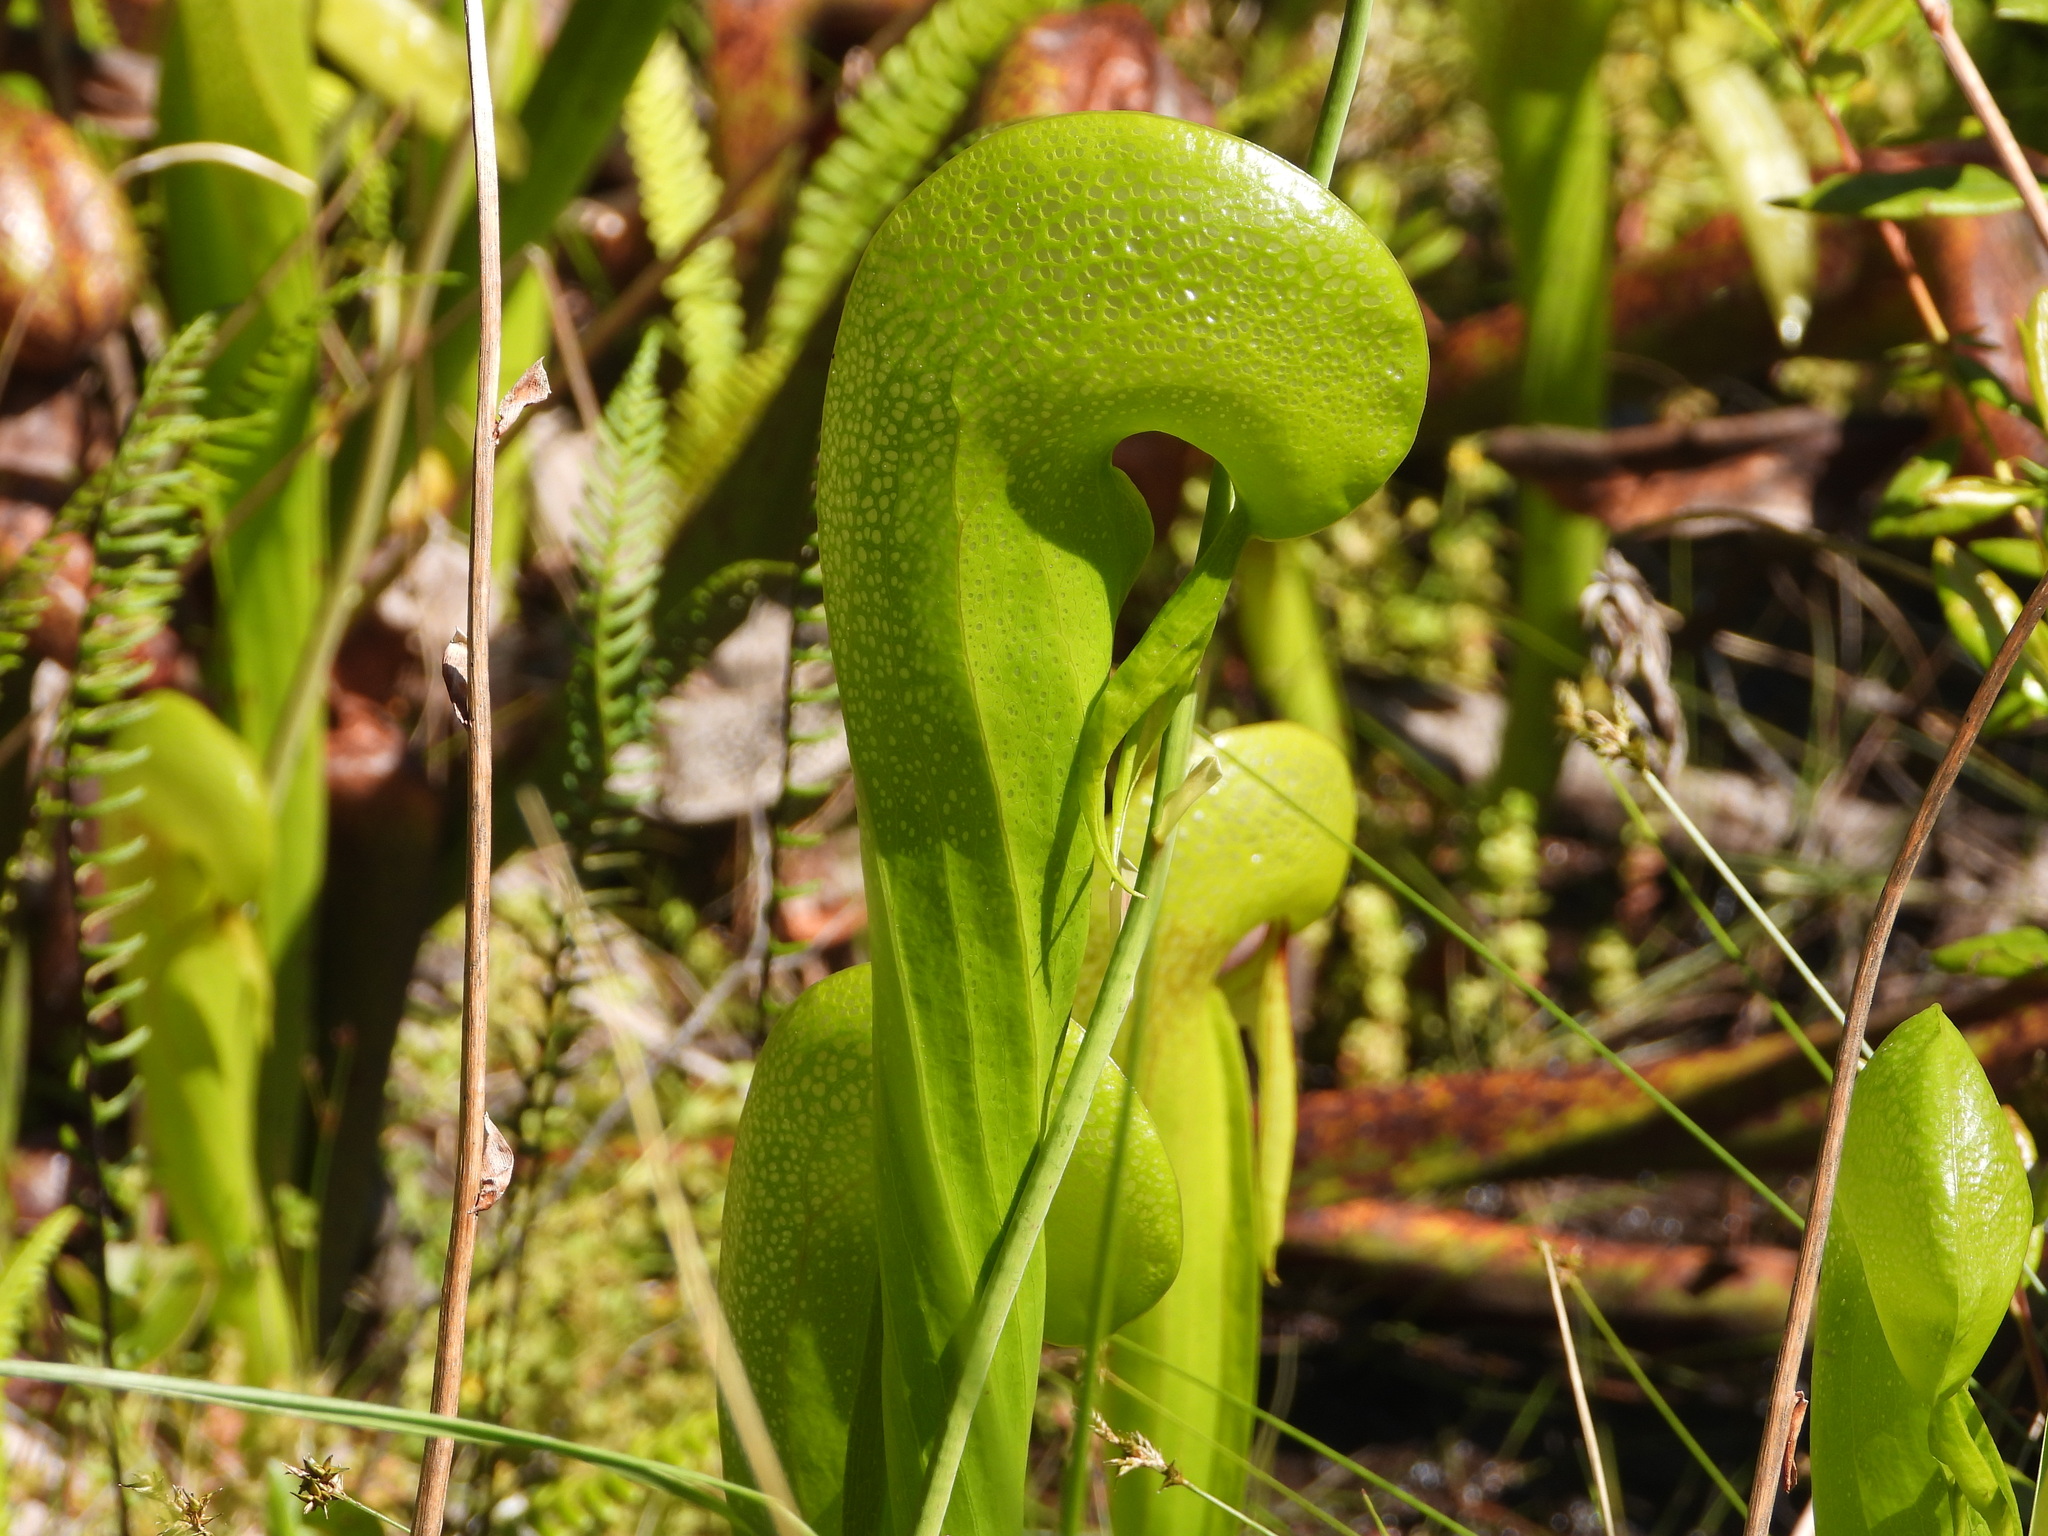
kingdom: Plantae
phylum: Tracheophyta
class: Magnoliopsida
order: Ericales
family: Sarraceniaceae
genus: Darlingtonia
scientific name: Darlingtonia californica
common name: California pitcher plant
